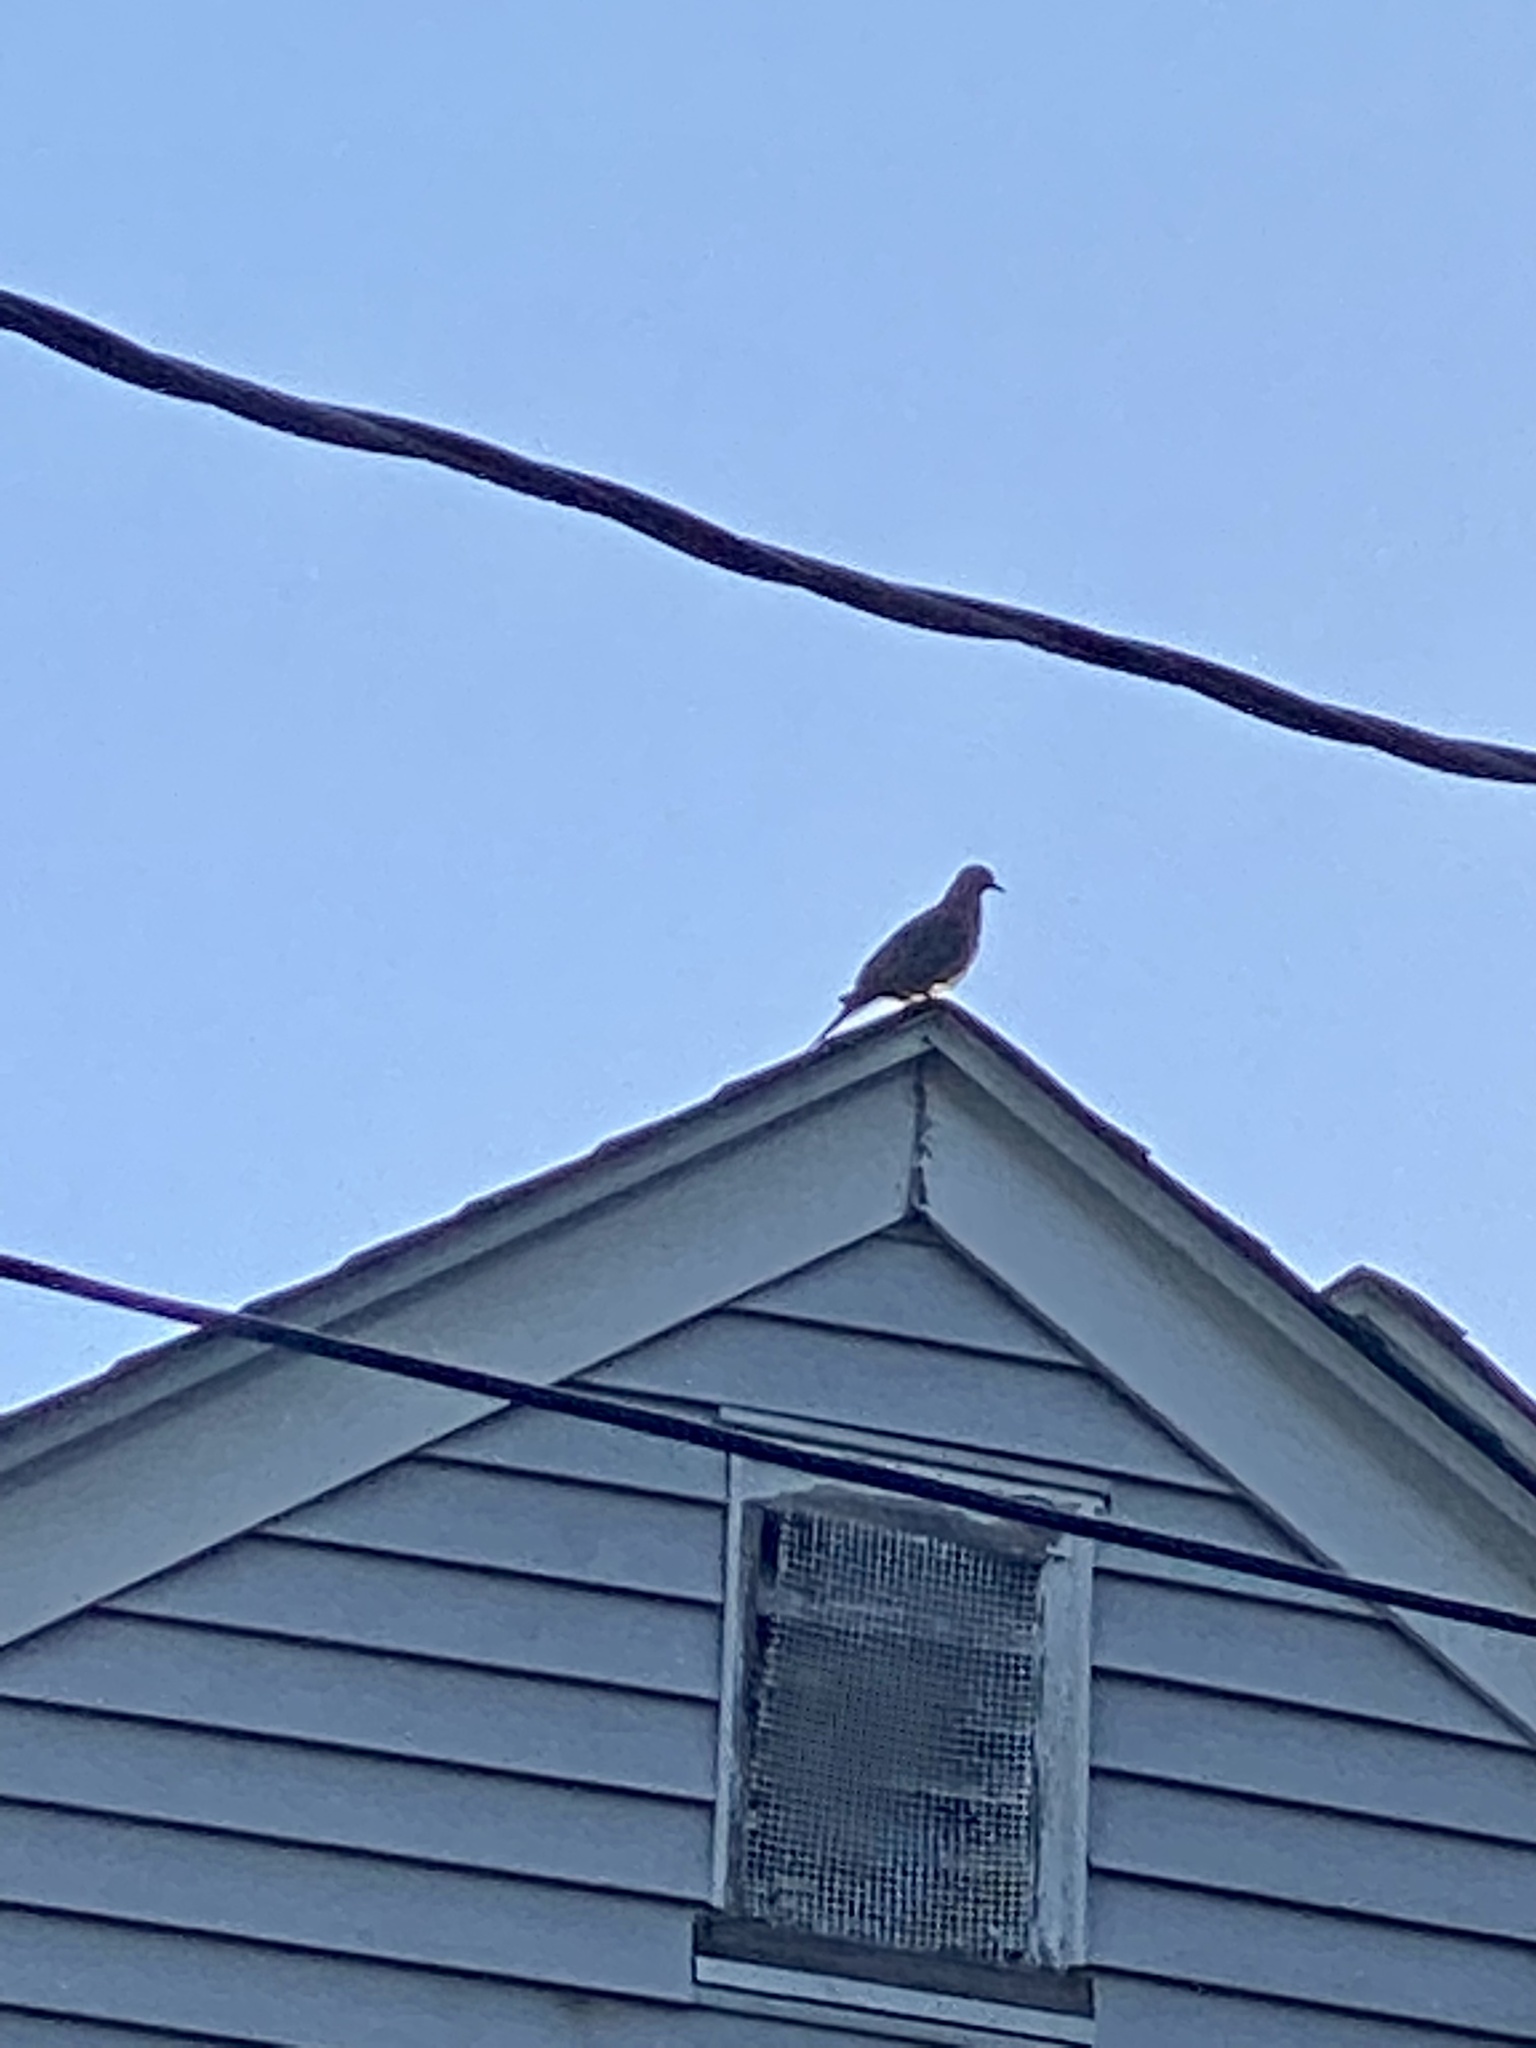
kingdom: Animalia
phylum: Chordata
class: Aves
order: Columbiformes
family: Columbidae
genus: Zenaida
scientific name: Zenaida macroura
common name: Mourning dove
